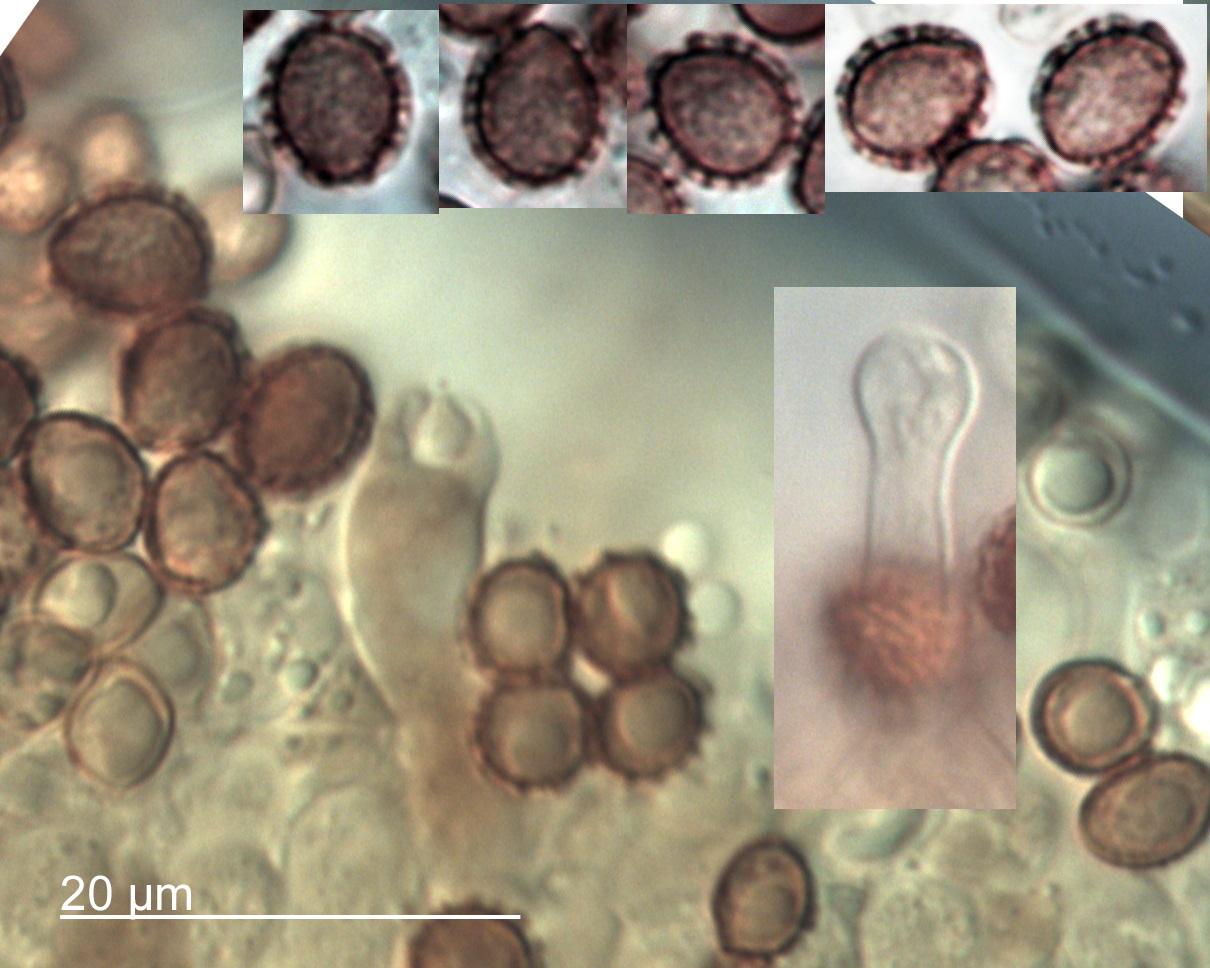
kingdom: Fungi
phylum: Basidiomycota
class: Agaricomycetes
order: Agaricales
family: Hymenogastraceae
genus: Gymnopilus
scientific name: Gymnopilus austropicreus
